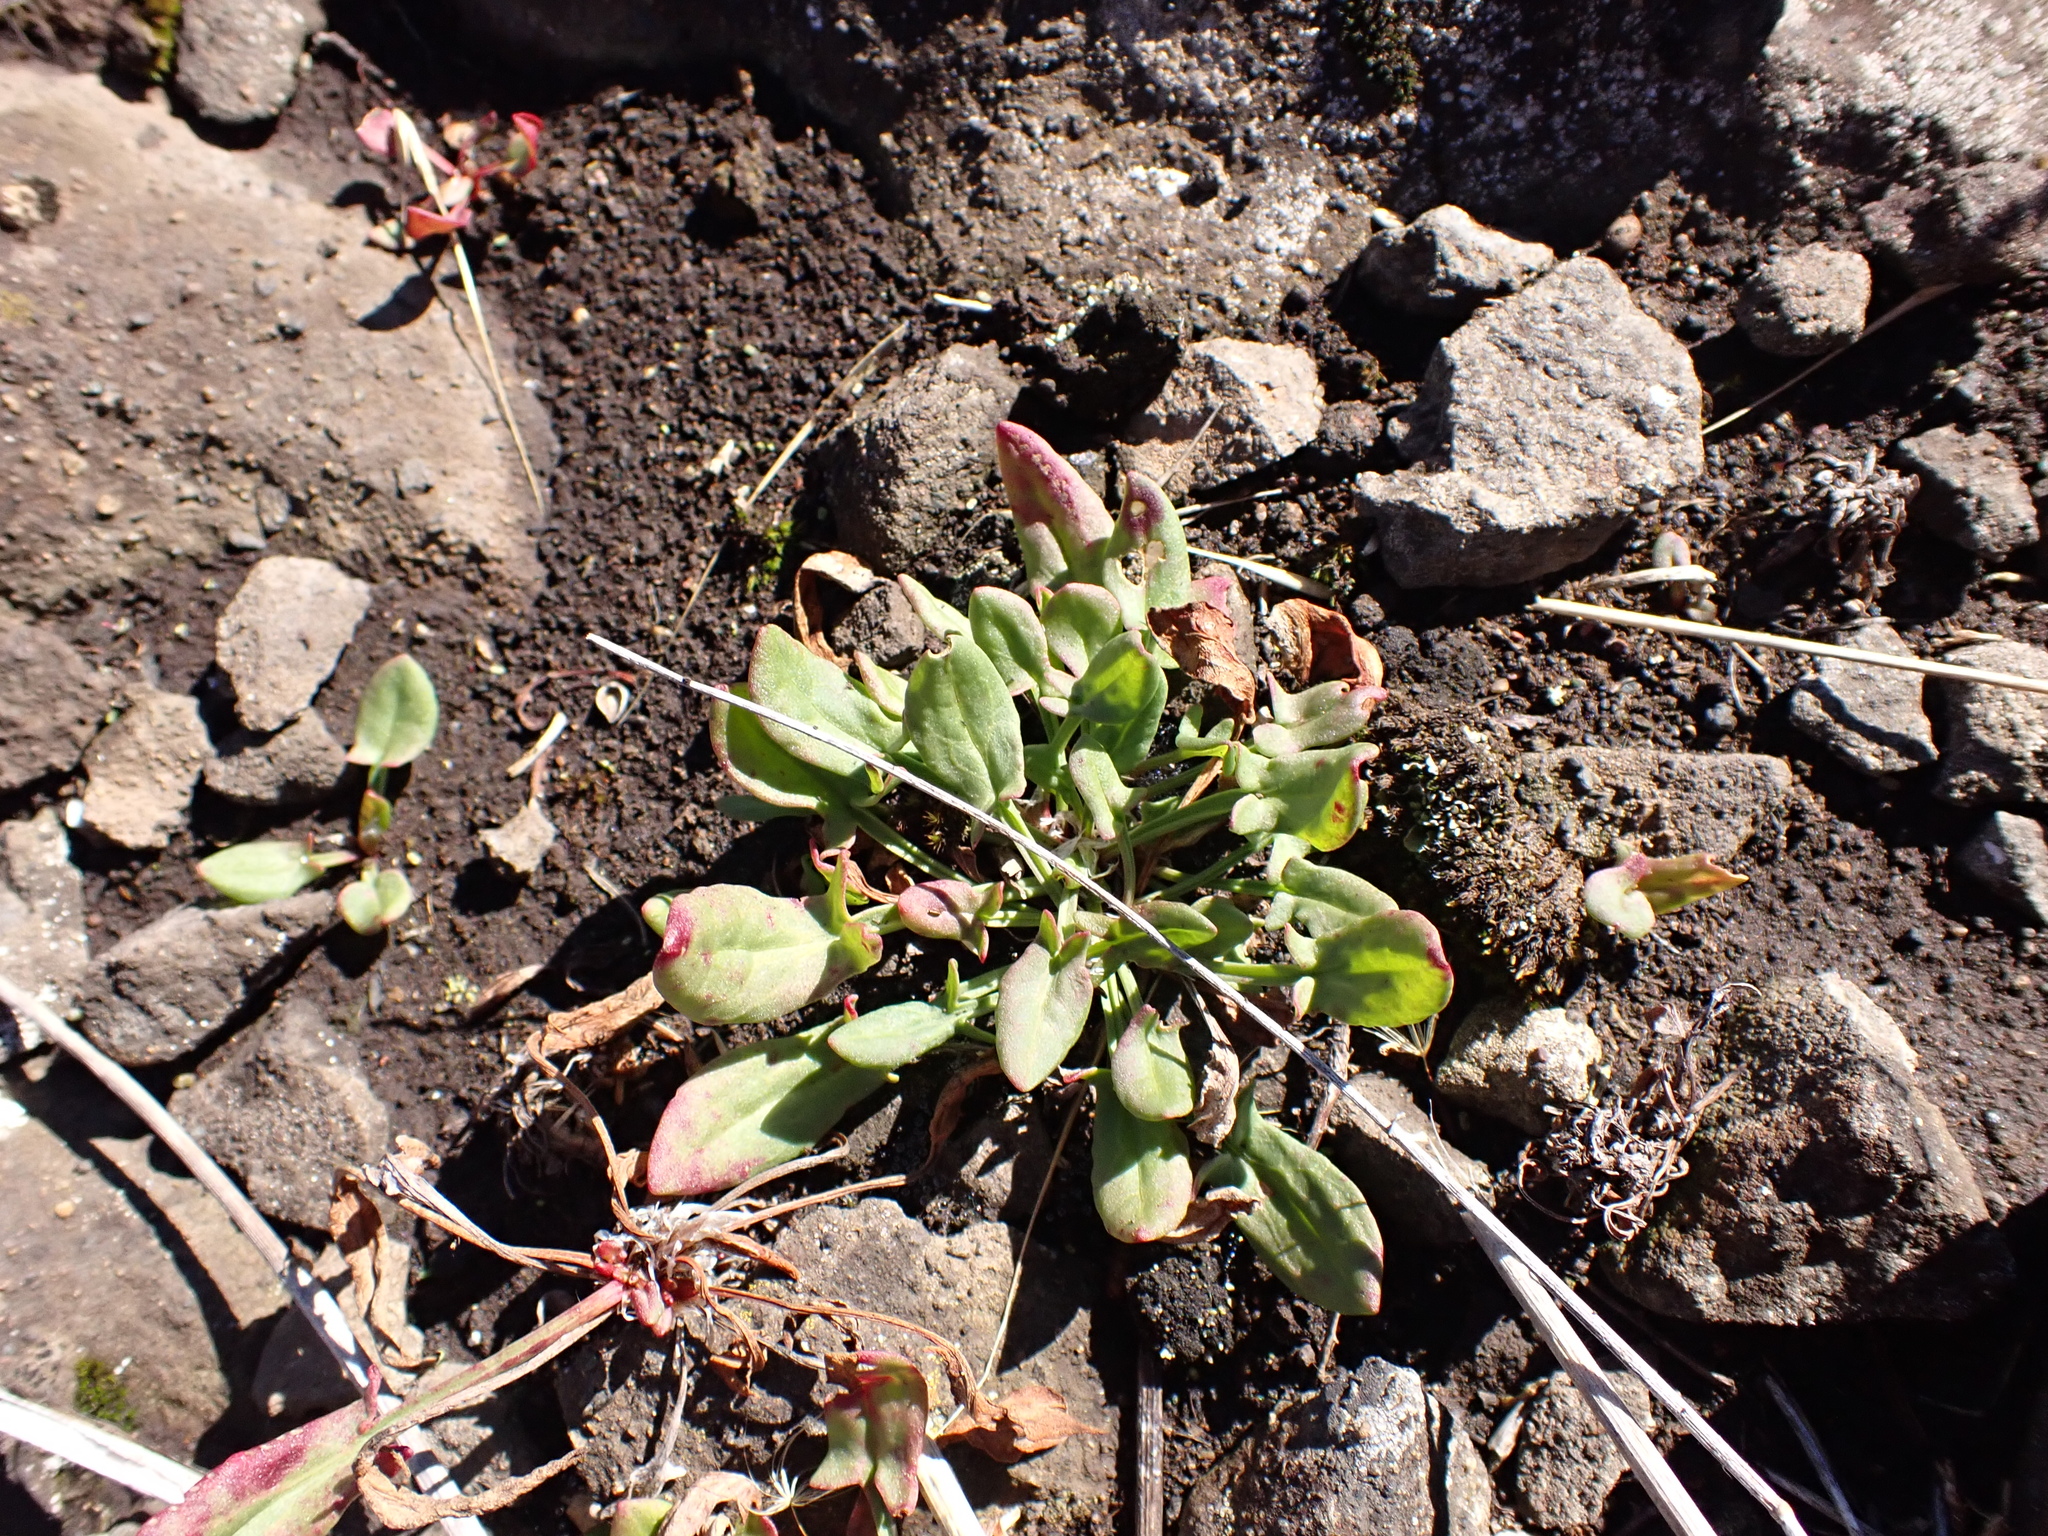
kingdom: Plantae
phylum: Tracheophyta
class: Magnoliopsida
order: Caryophyllales
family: Polygonaceae
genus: Rumex
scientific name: Rumex acetosella
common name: Common sheep sorrel
